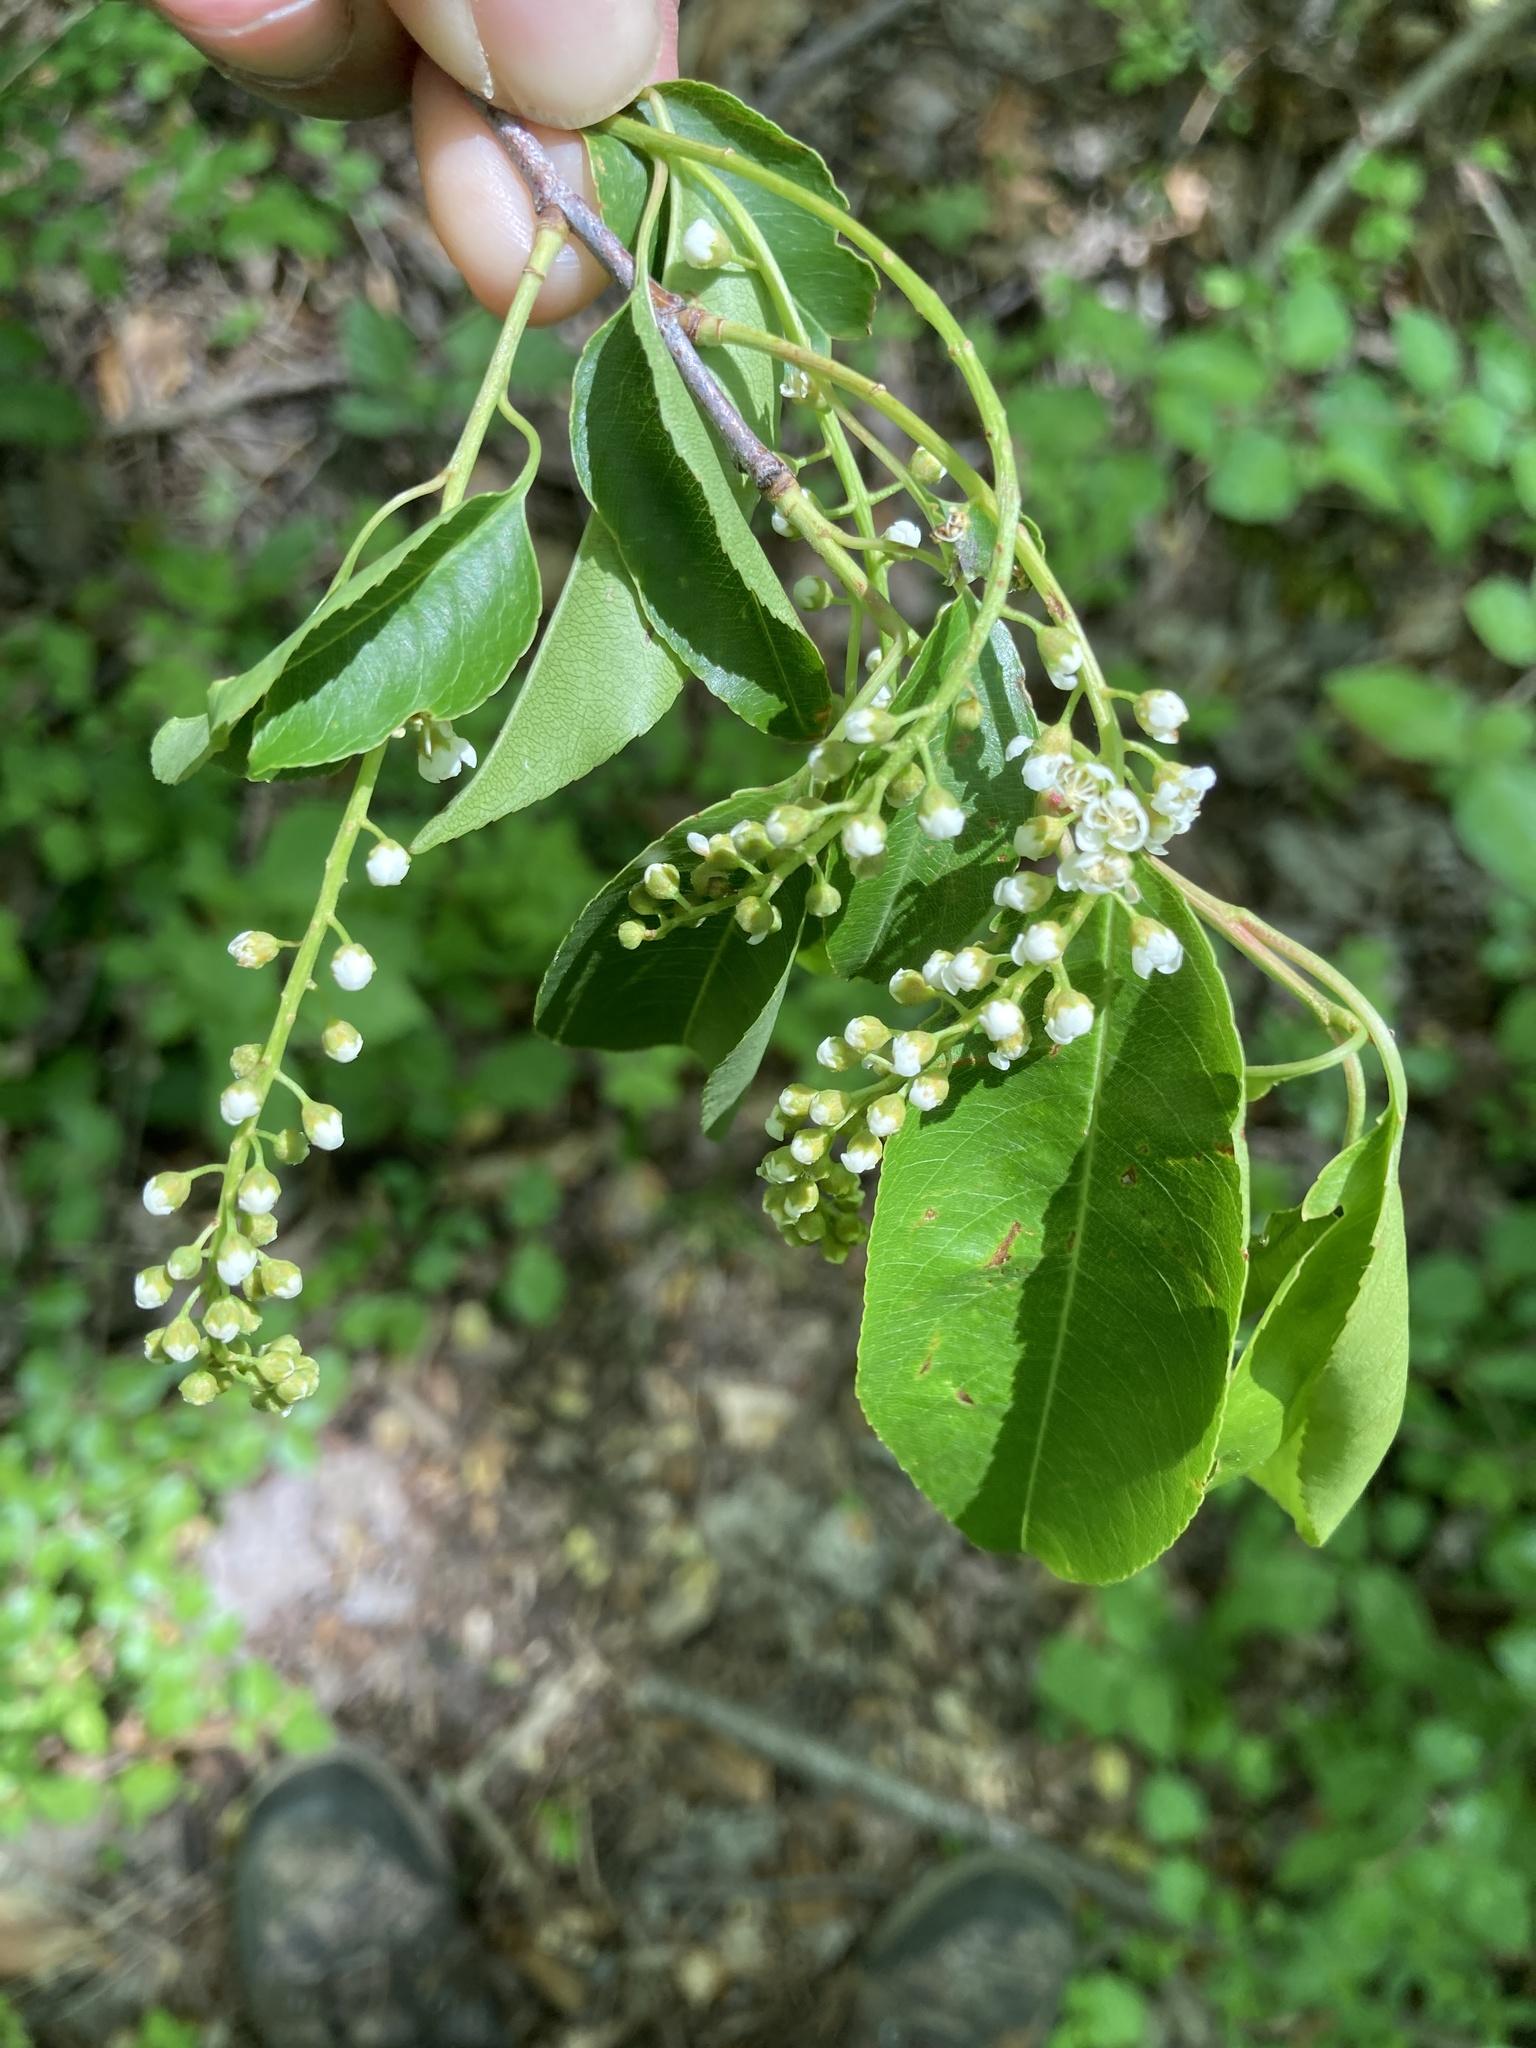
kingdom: Plantae
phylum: Tracheophyta
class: Magnoliopsida
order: Rosales
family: Rosaceae
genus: Prunus
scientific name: Prunus serotina
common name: Black cherry
